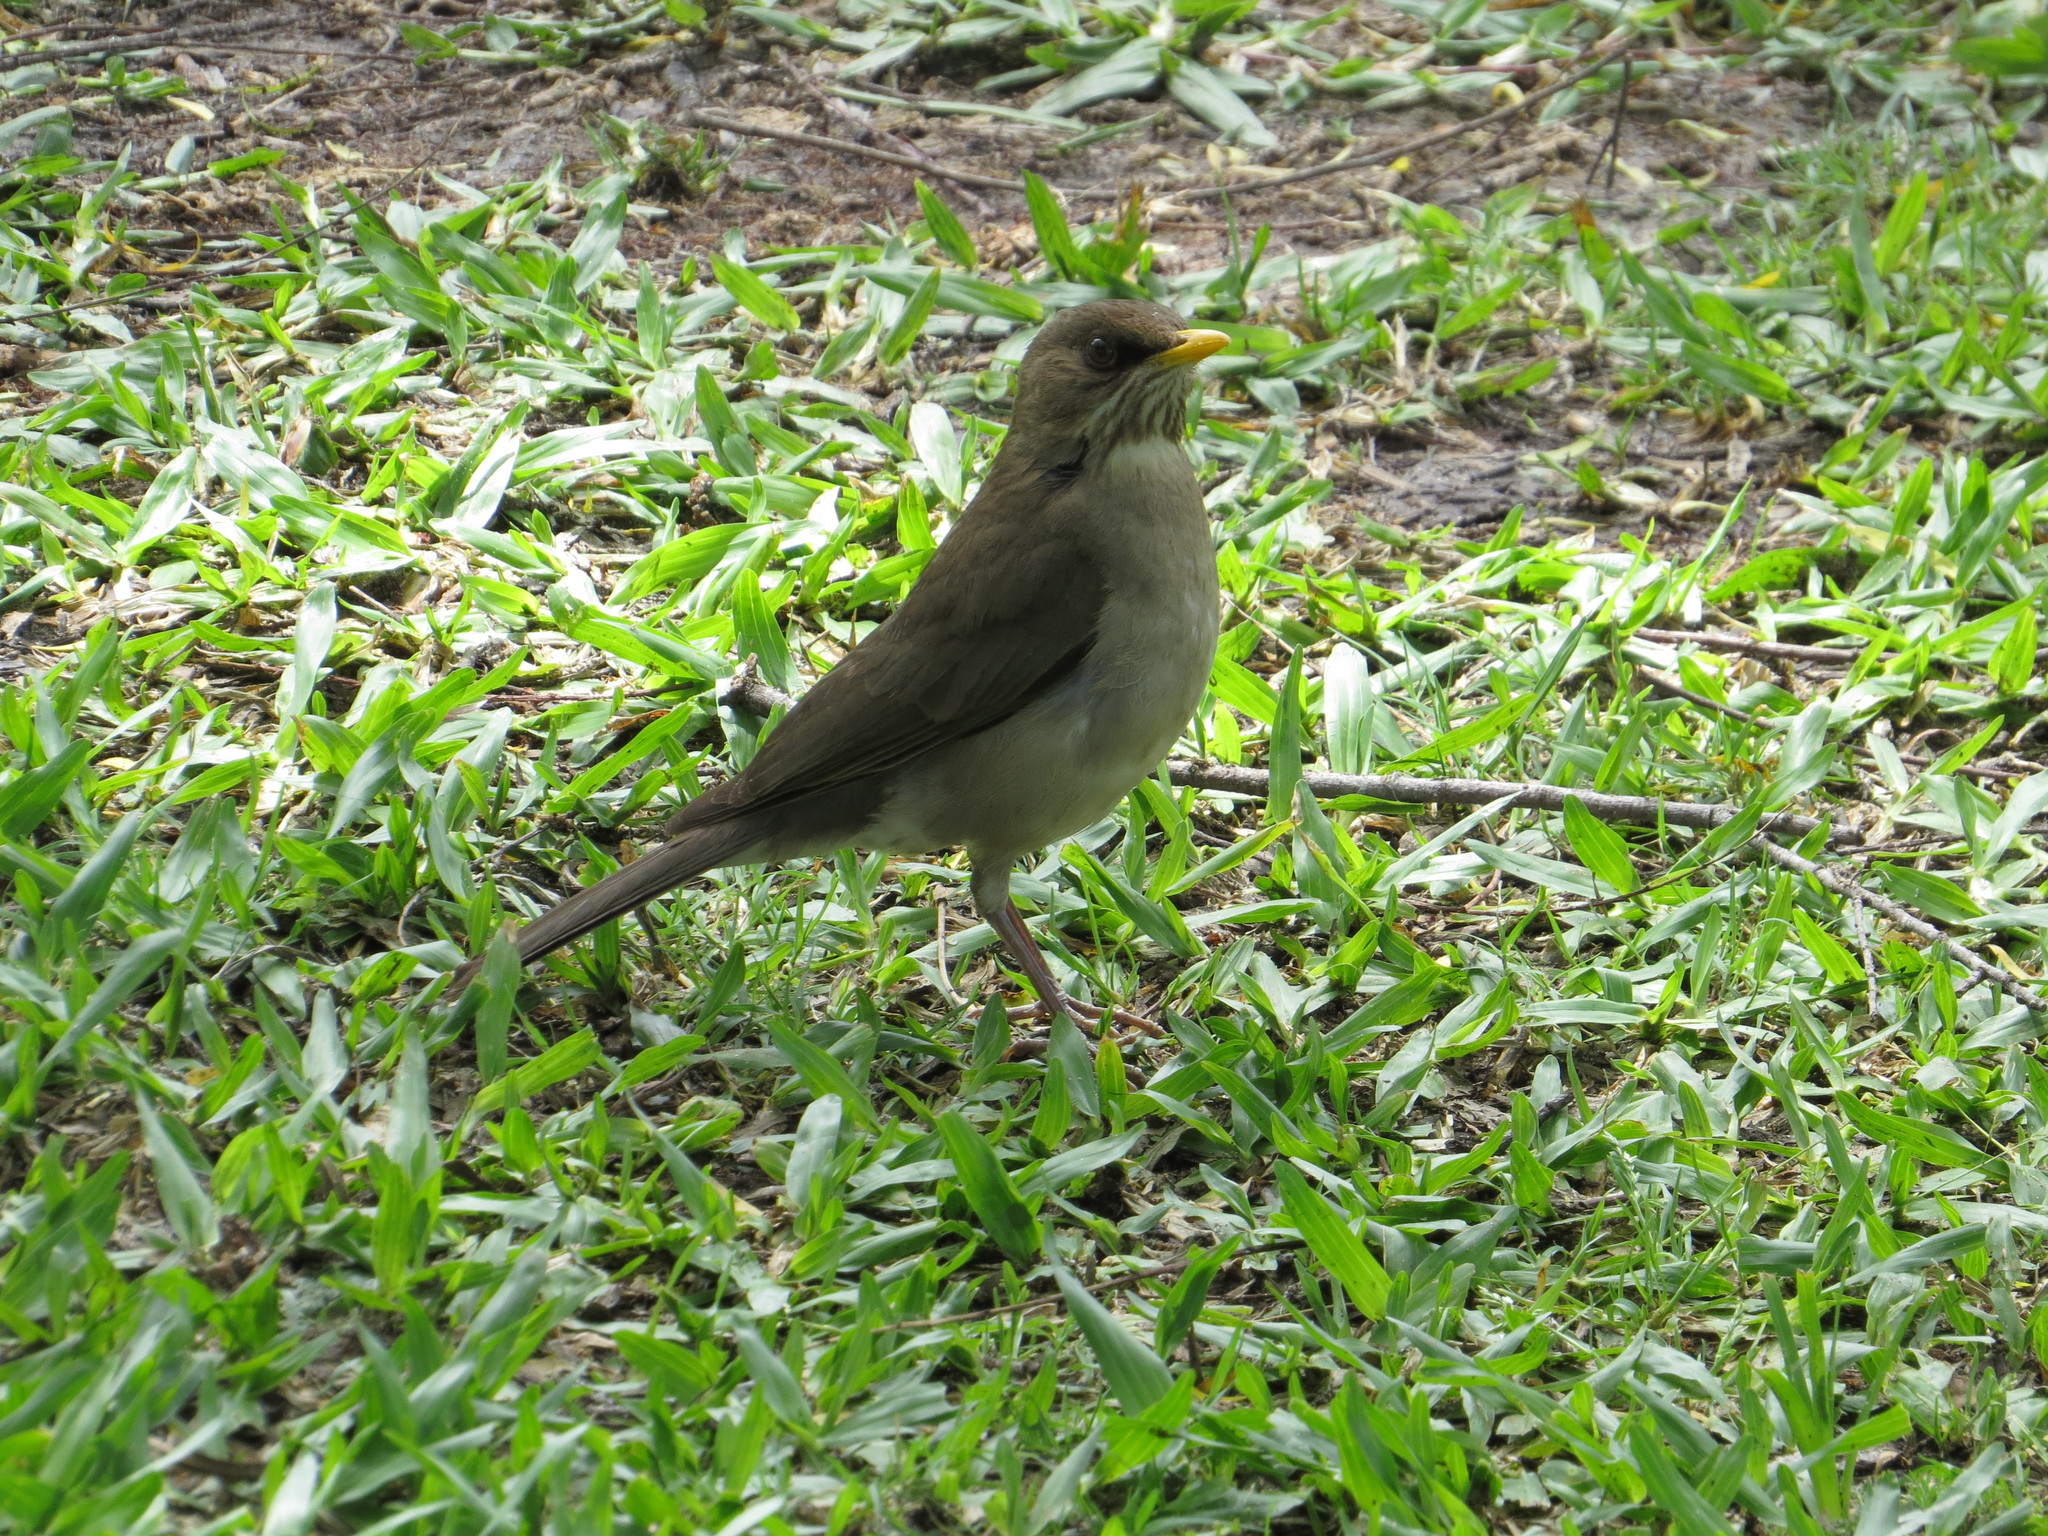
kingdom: Animalia
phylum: Chordata
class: Aves
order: Passeriformes
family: Turdidae
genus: Turdus
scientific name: Turdus amaurochalinus
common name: Creamy-bellied thrush
